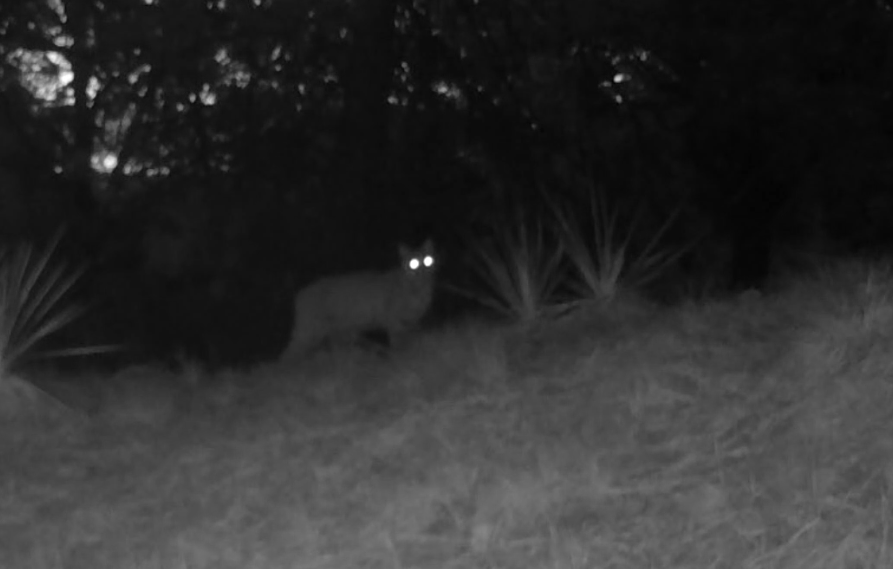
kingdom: Animalia
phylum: Chordata
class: Mammalia
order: Carnivora
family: Felidae
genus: Lynx
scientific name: Lynx rufus
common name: Bobcat
